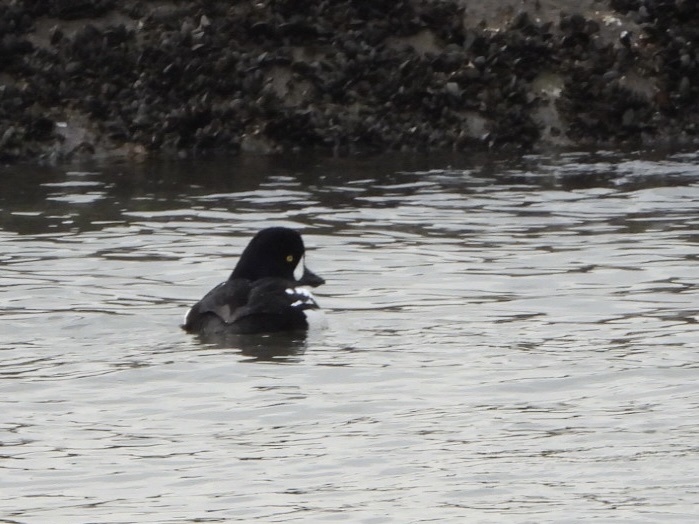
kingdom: Animalia
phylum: Chordata
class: Aves
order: Anseriformes
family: Anatidae
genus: Bucephala
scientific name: Bucephala islandica
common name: Barrow's goldeneye
